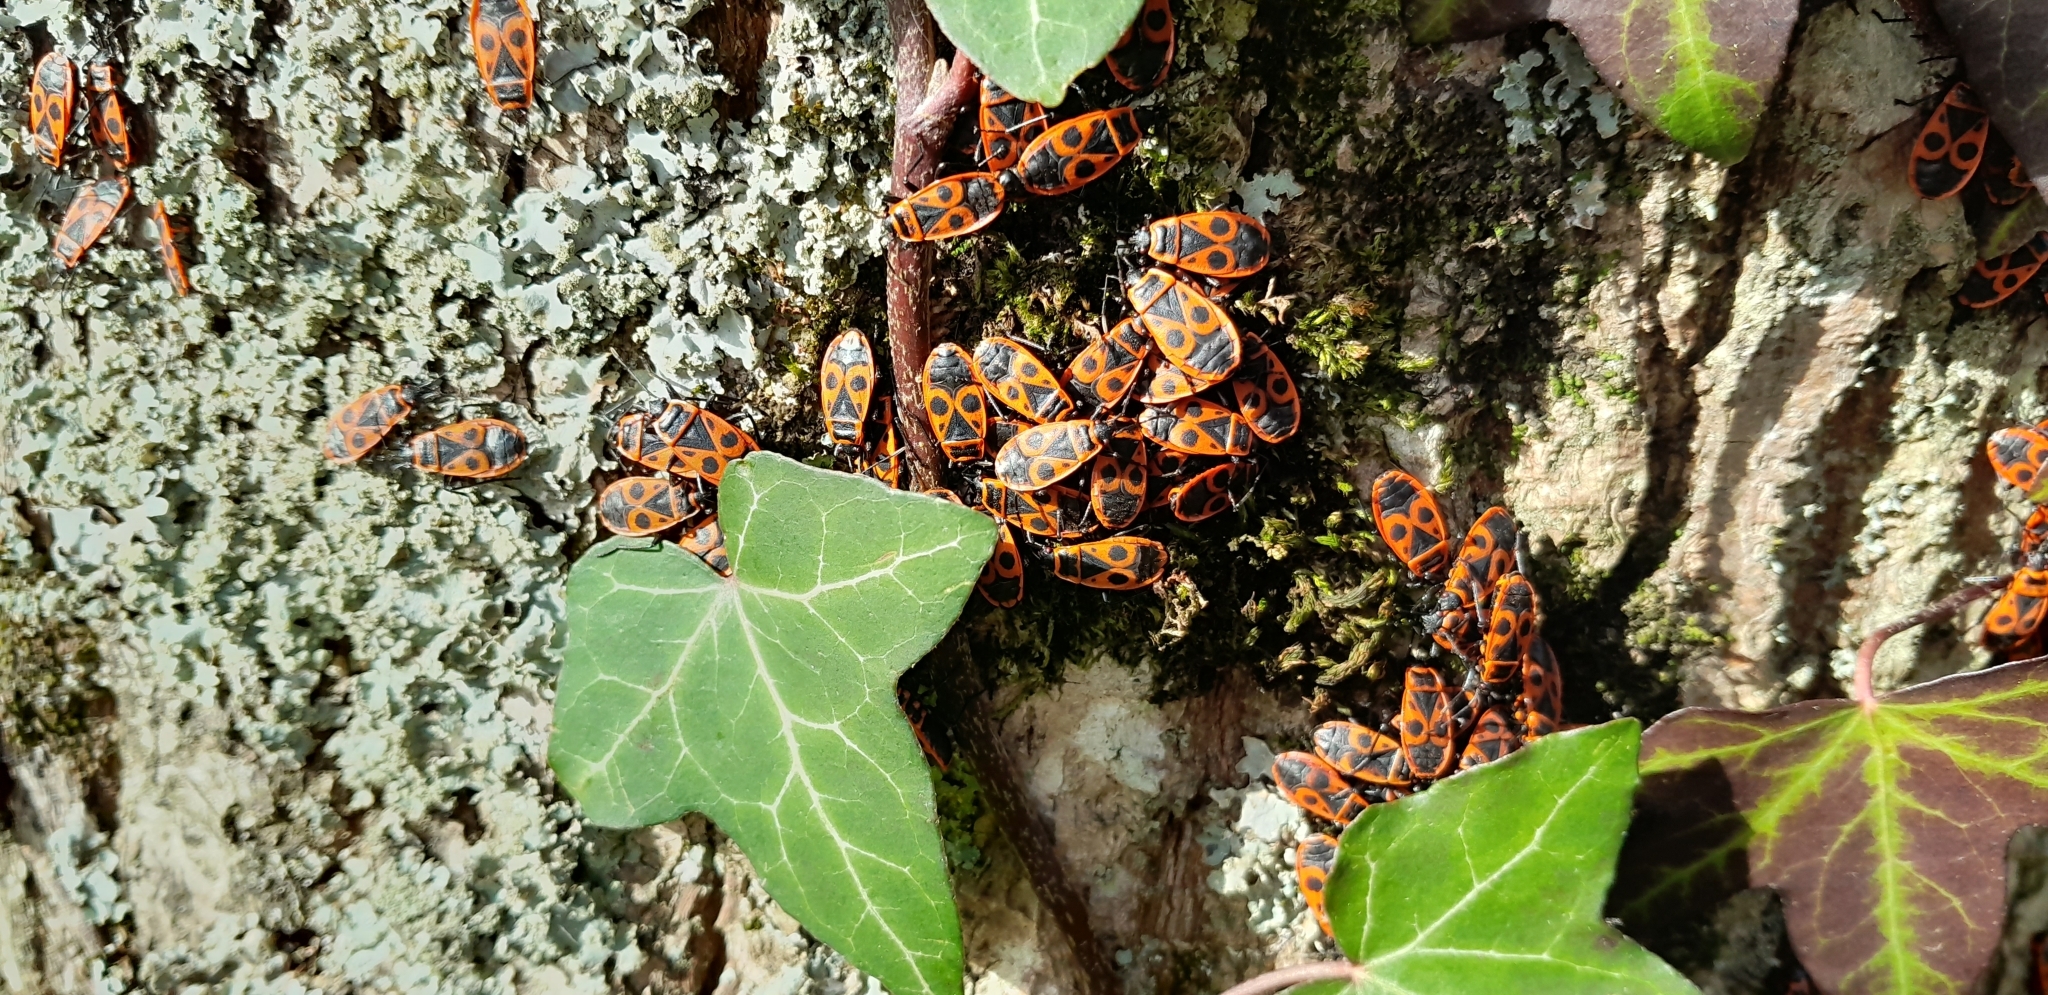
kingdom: Animalia
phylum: Arthropoda
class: Insecta
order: Hemiptera
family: Pyrrhocoridae
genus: Pyrrhocoris
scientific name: Pyrrhocoris apterus
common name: Firebug
